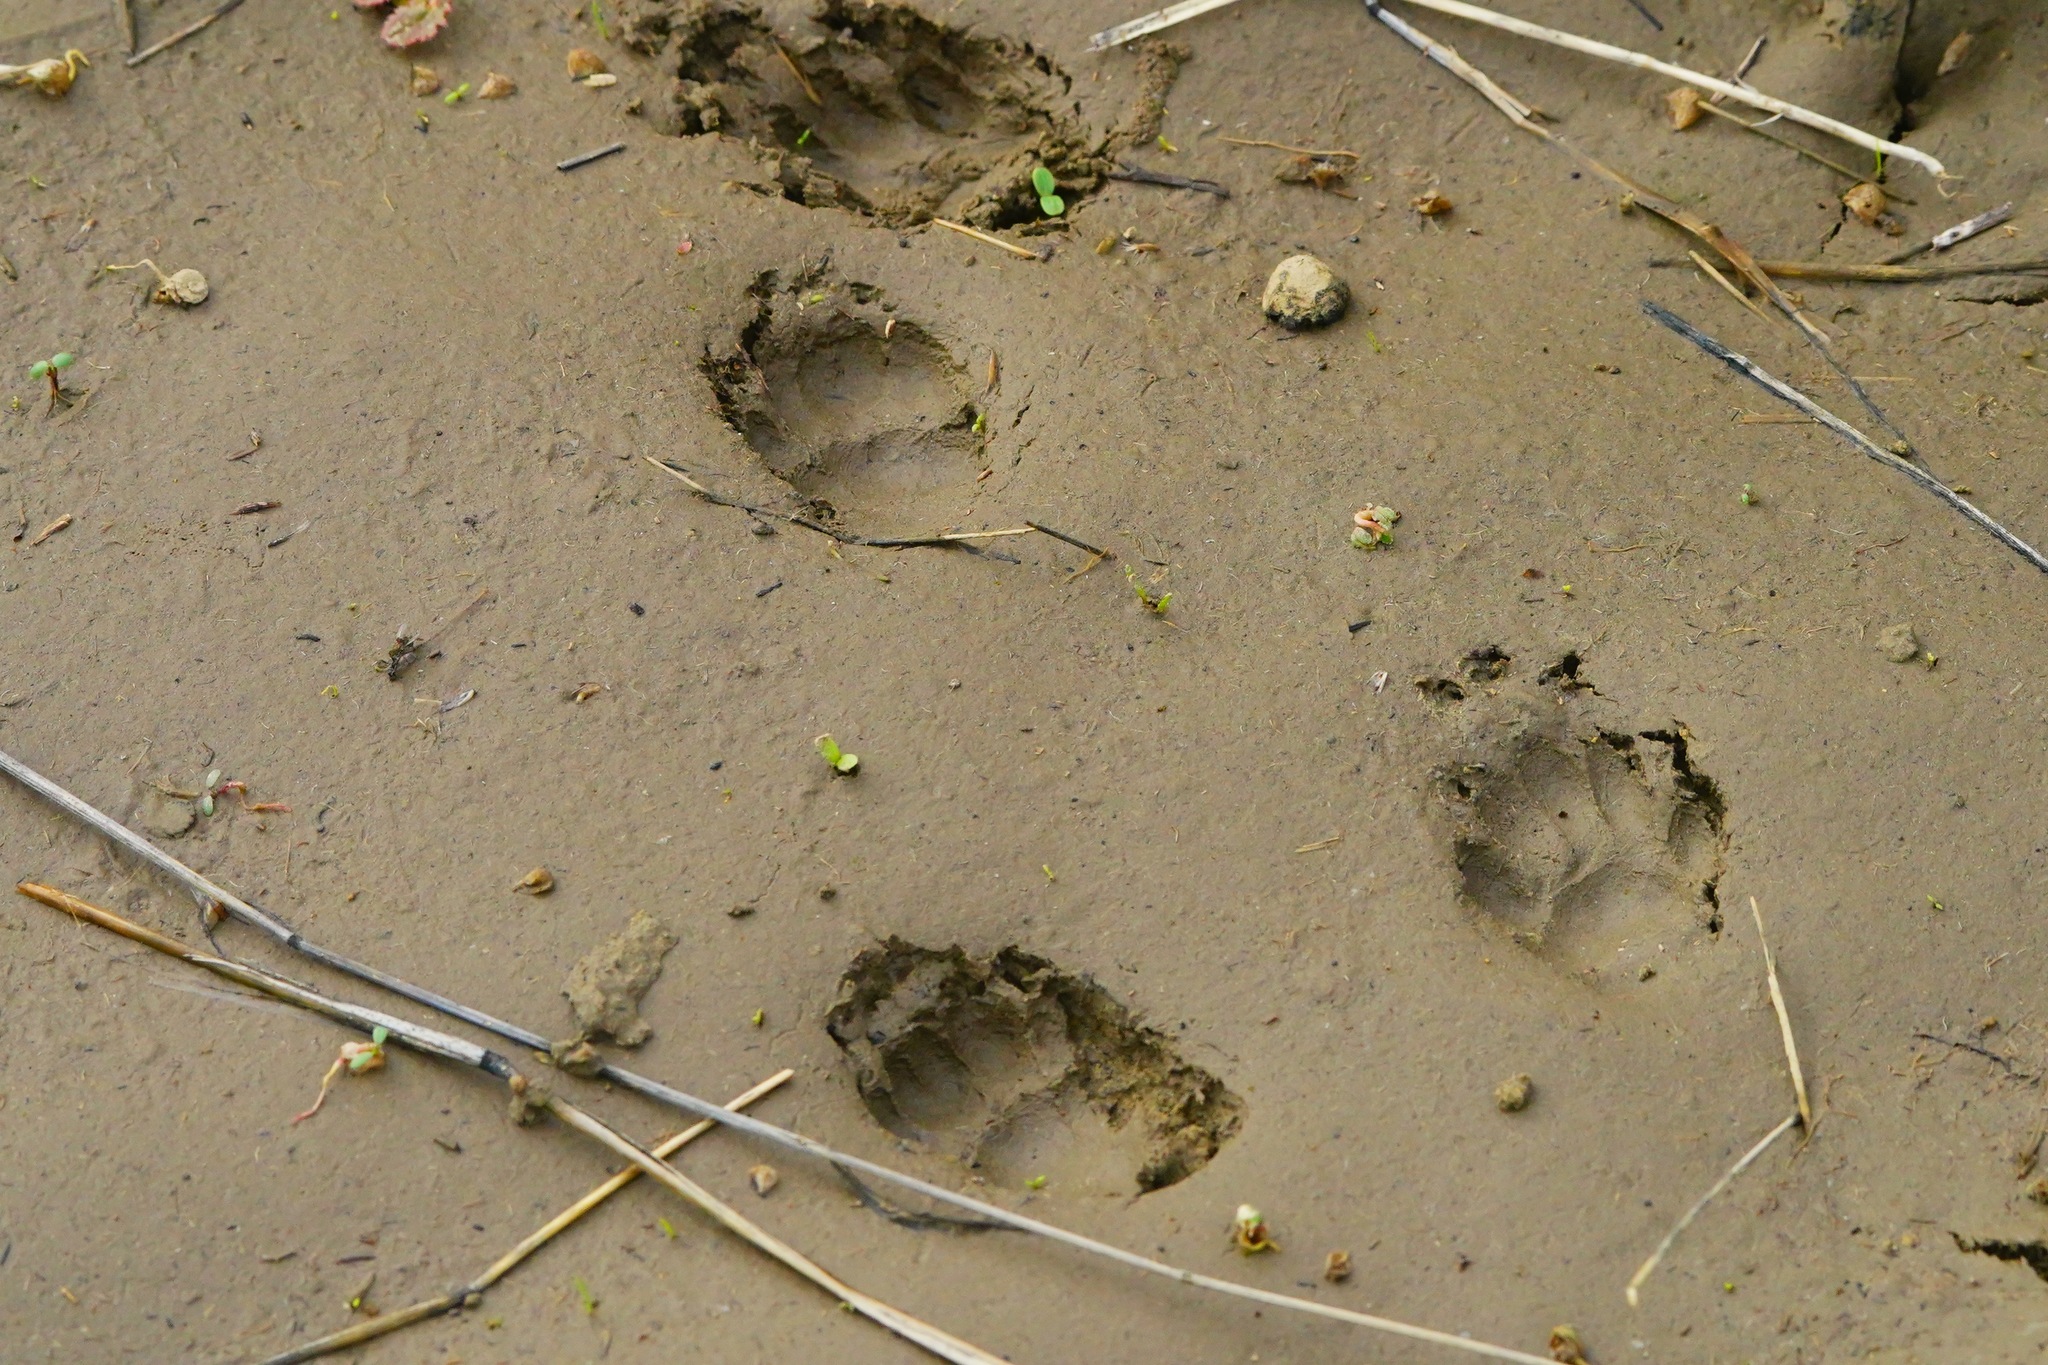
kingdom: Animalia
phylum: Chordata
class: Mammalia
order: Carnivora
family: Mephitidae
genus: Mephitis
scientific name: Mephitis mephitis
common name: Striped skunk
